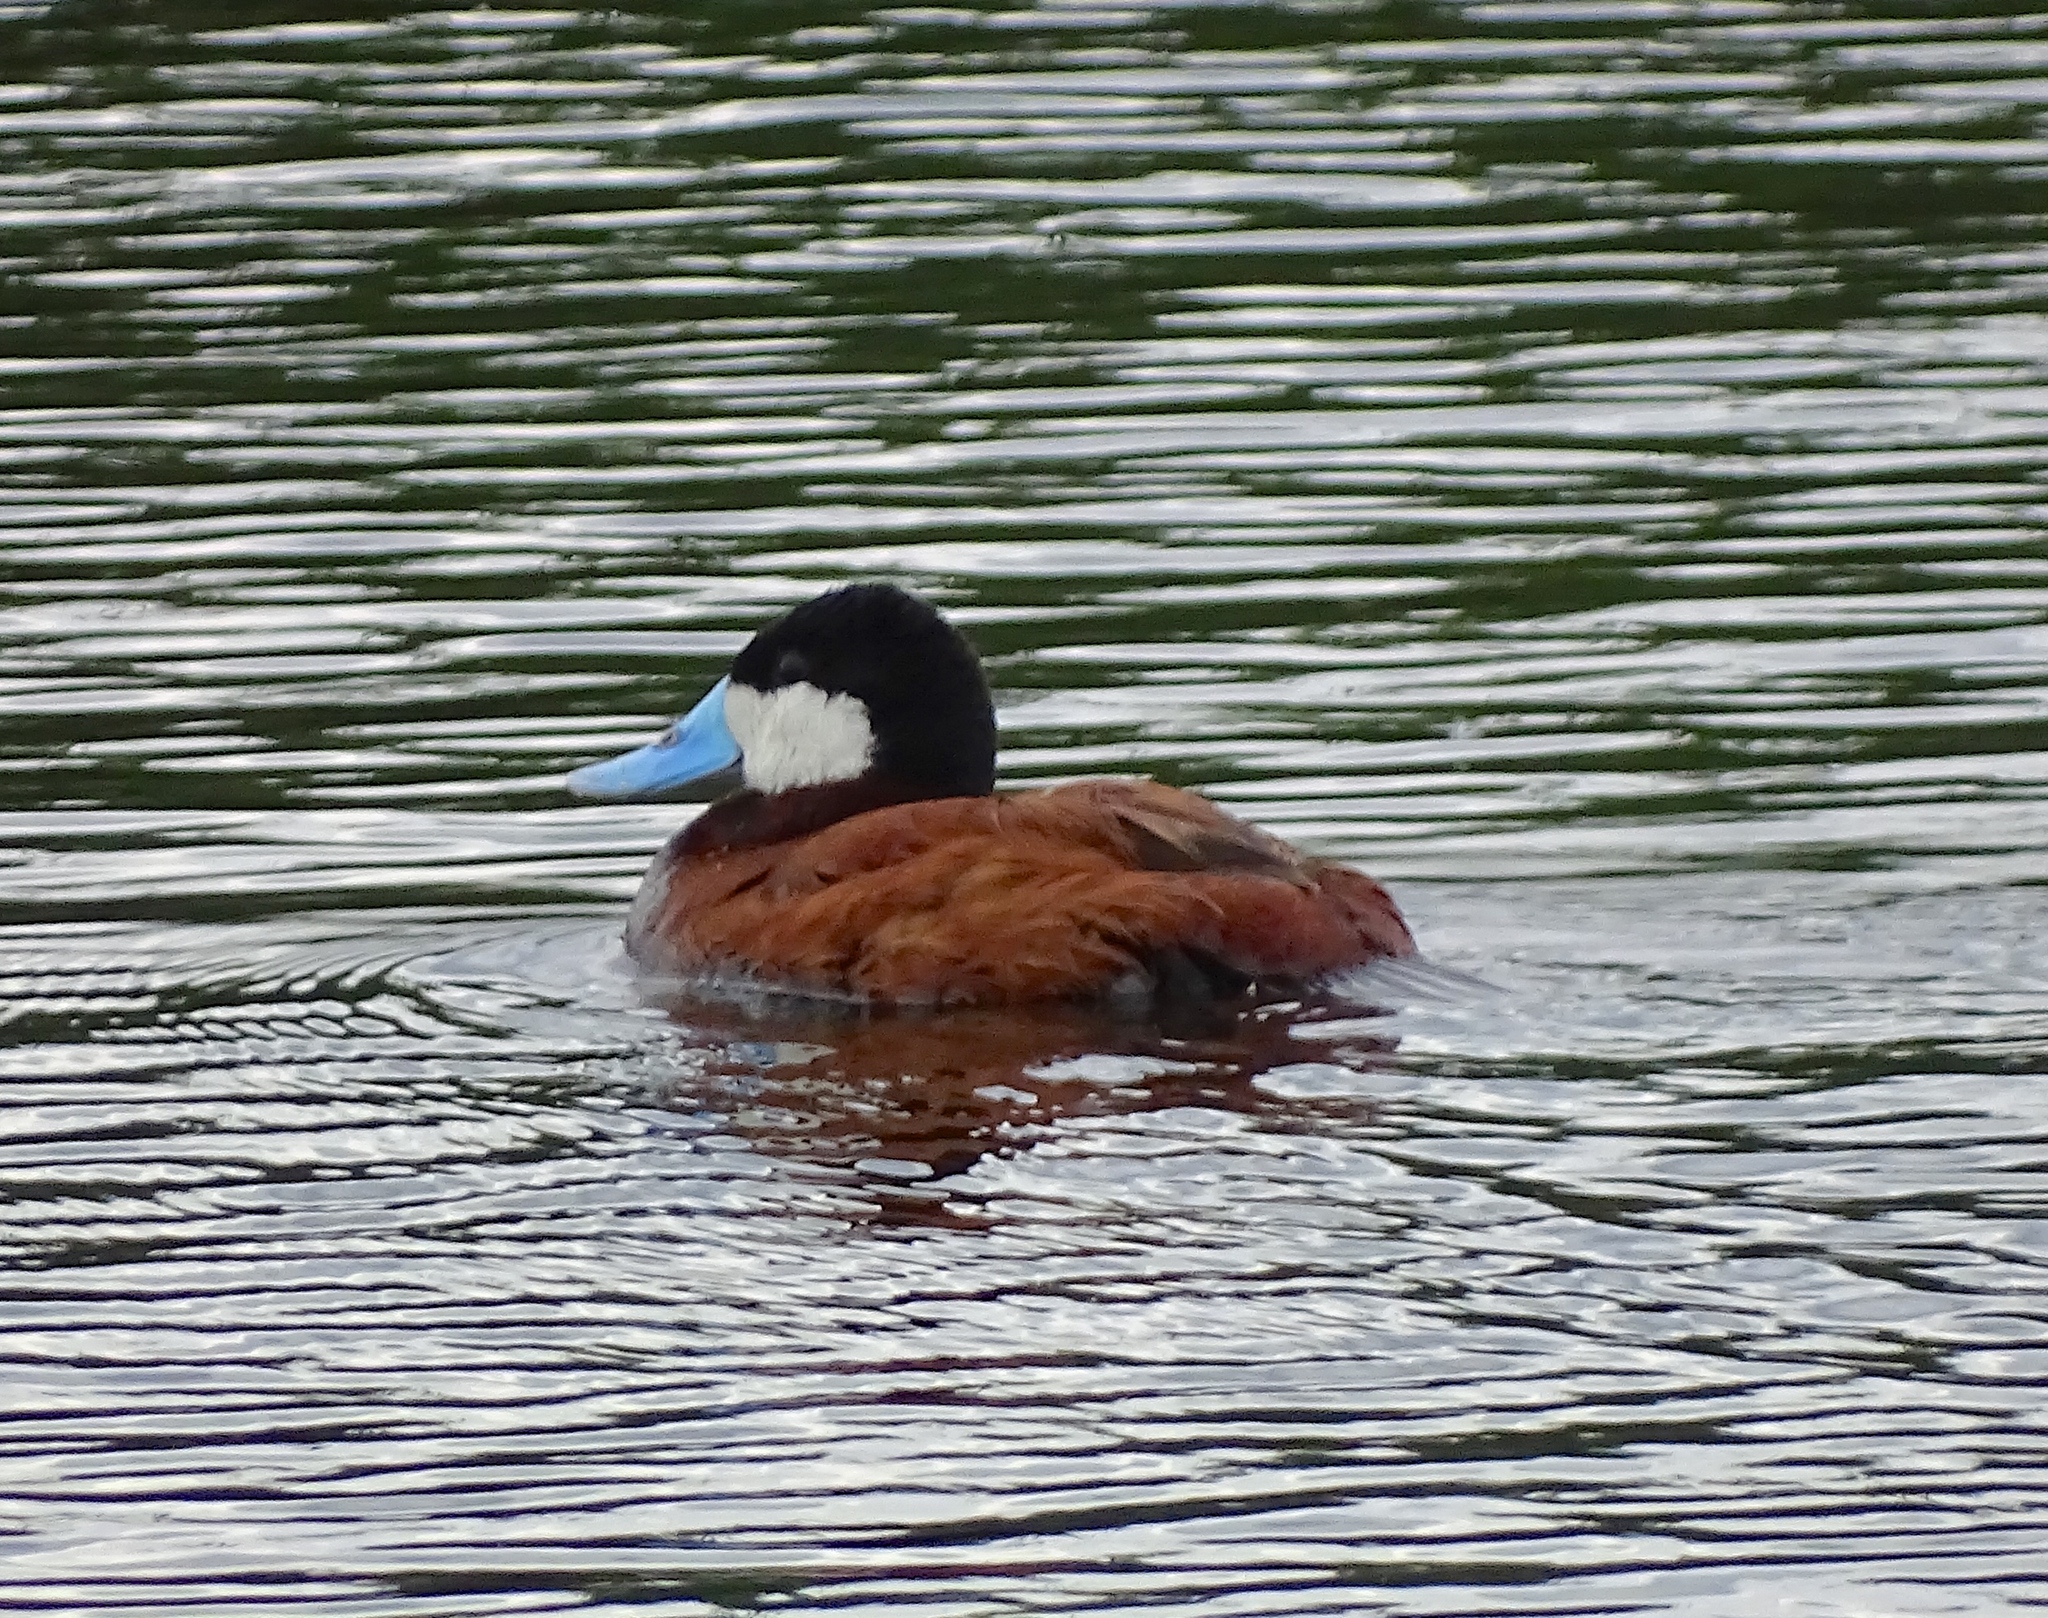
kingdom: Animalia
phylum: Chordata
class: Aves
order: Anseriformes
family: Anatidae
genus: Oxyura
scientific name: Oxyura jamaicensis
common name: Ruddy duck
